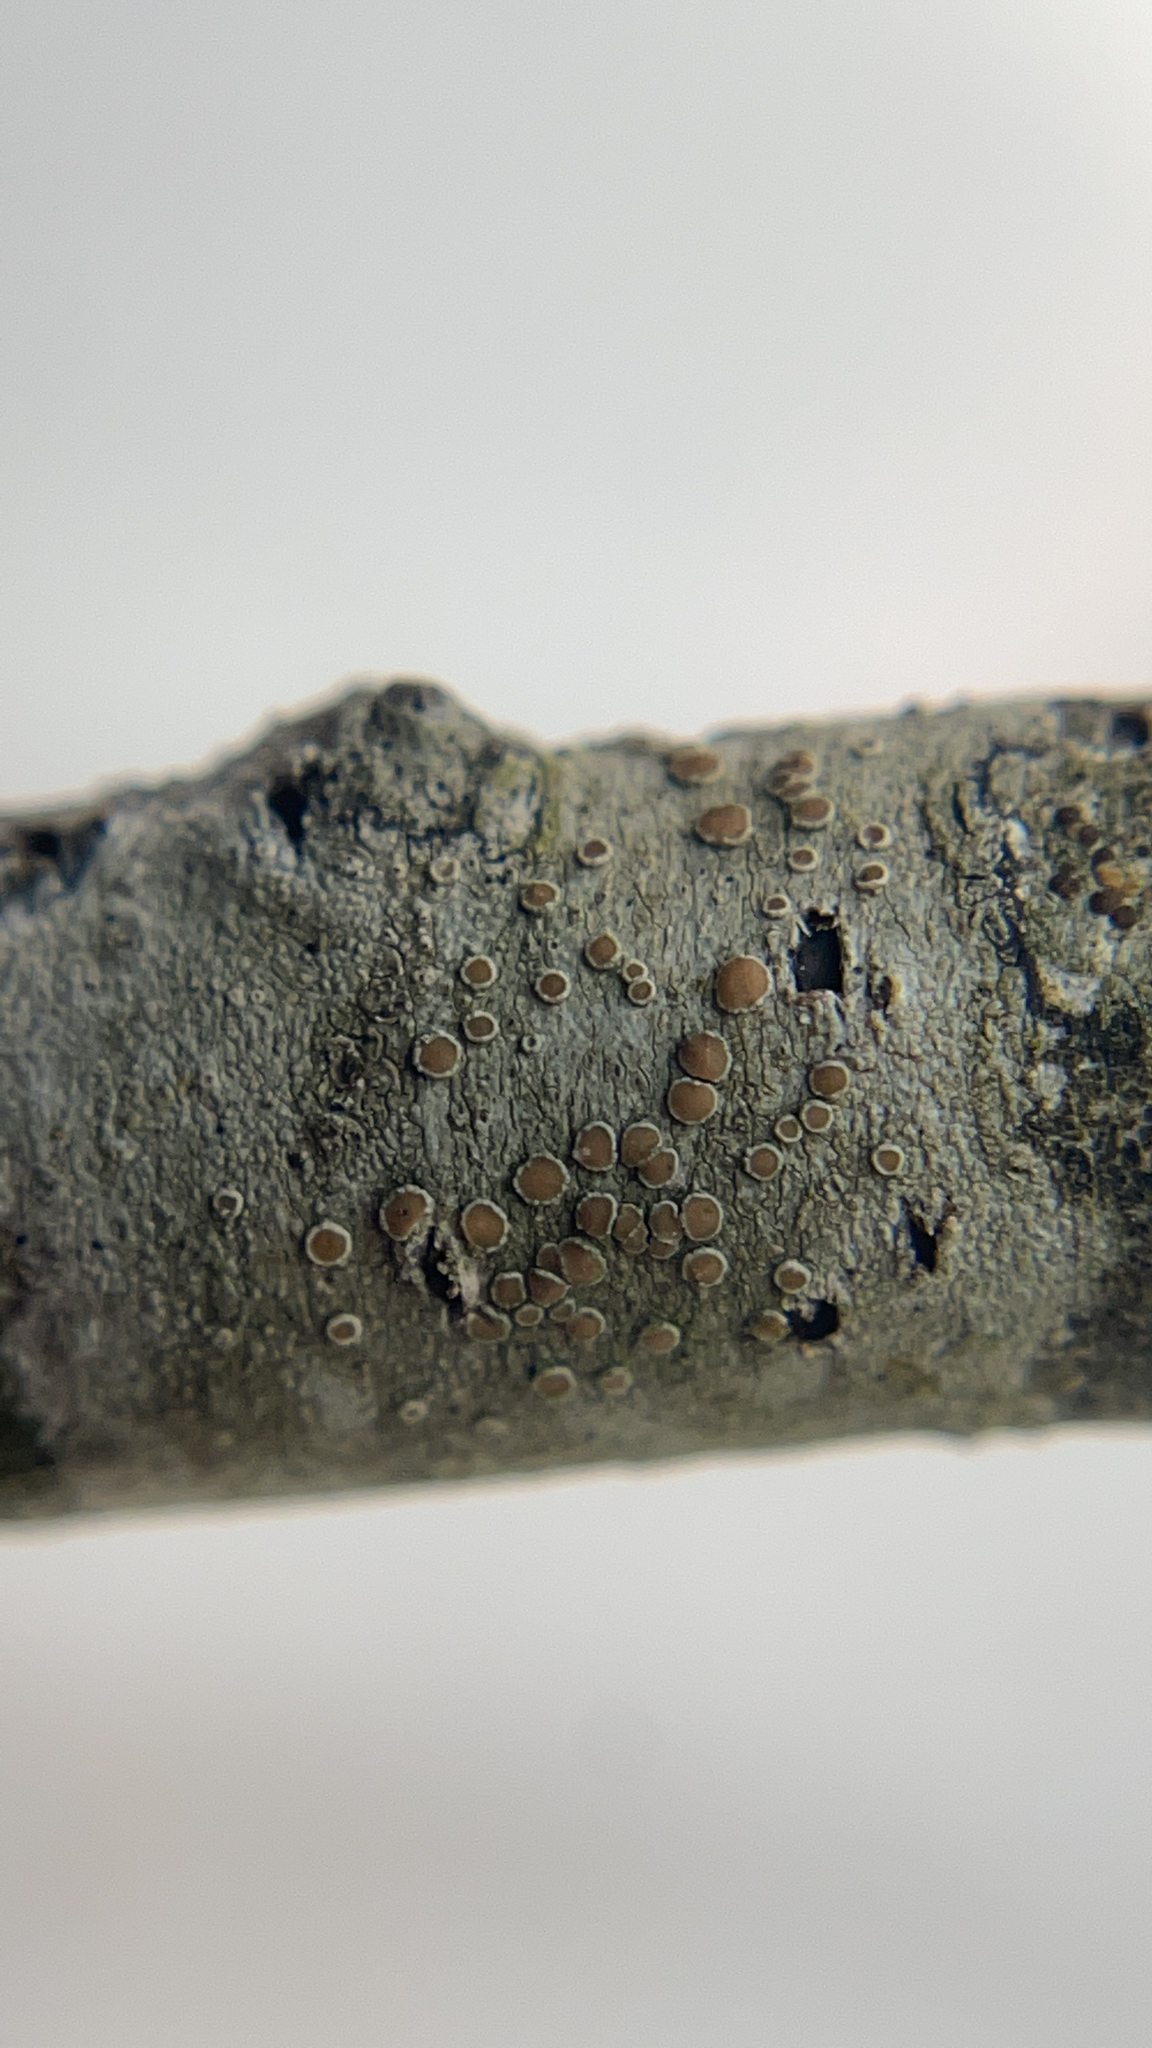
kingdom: Fungi
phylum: Ascomycota
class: Lecanoromycetes
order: Lecanorales
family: Lecanoraceae
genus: Lecanora
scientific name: Lecanora hybocarpa
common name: Bumpy rim-lichen
